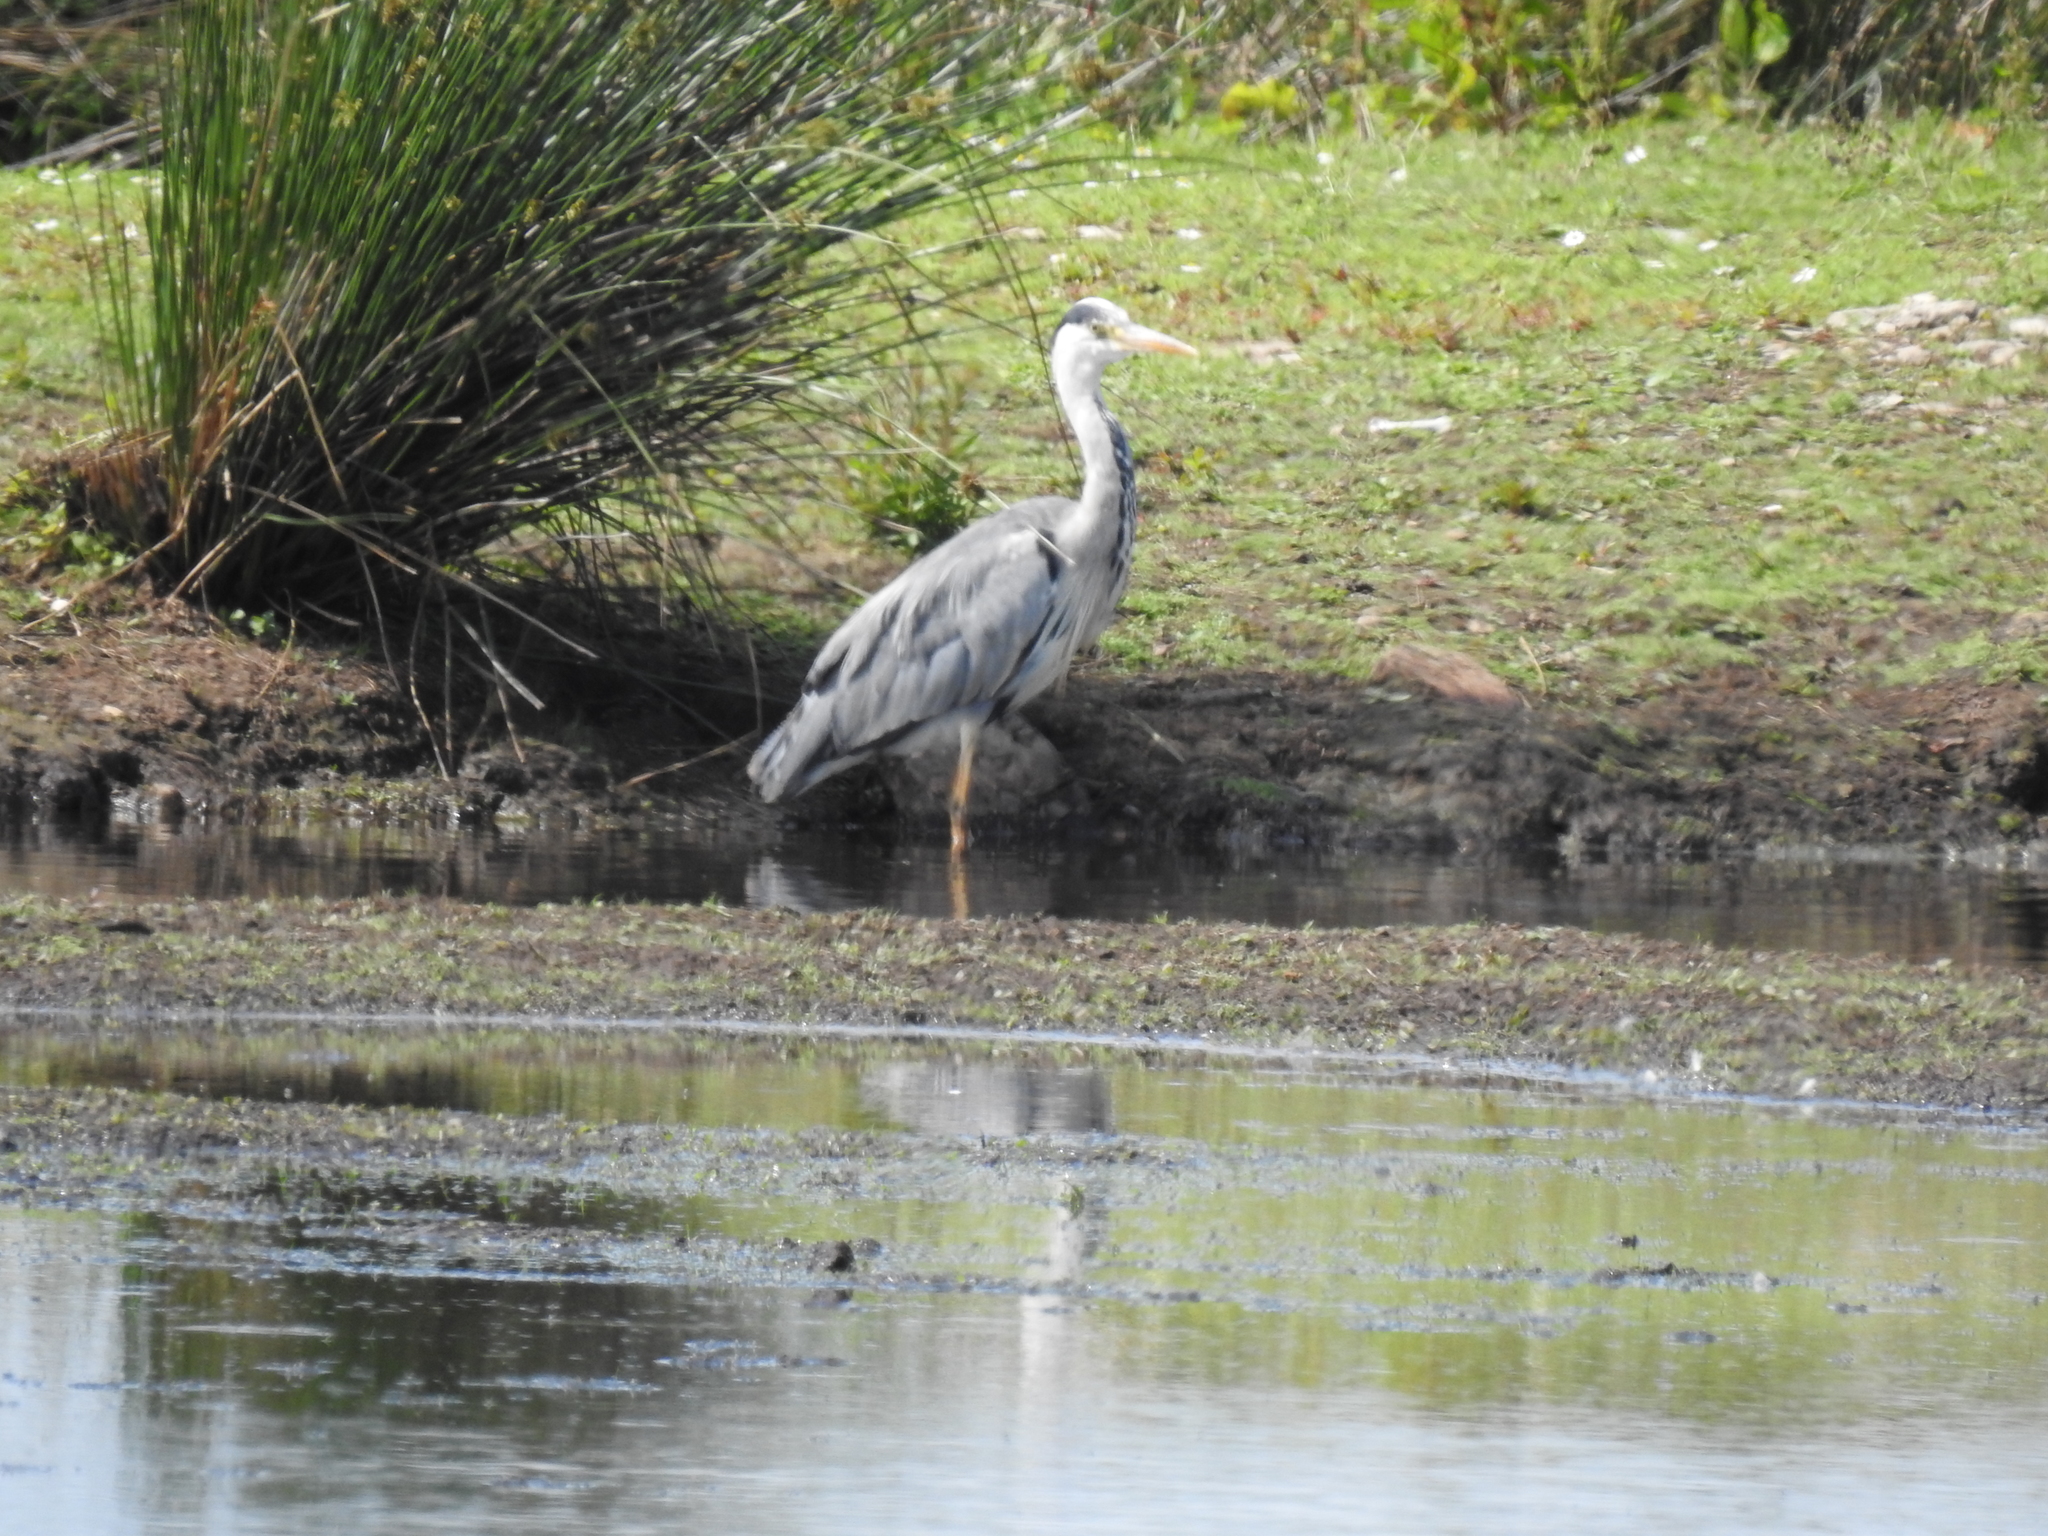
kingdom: Animalia
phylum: Chordata
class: Aves
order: Pelecaniformes
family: Ardeidae
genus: Ardea
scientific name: Ardea cinerea
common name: Grey heron
